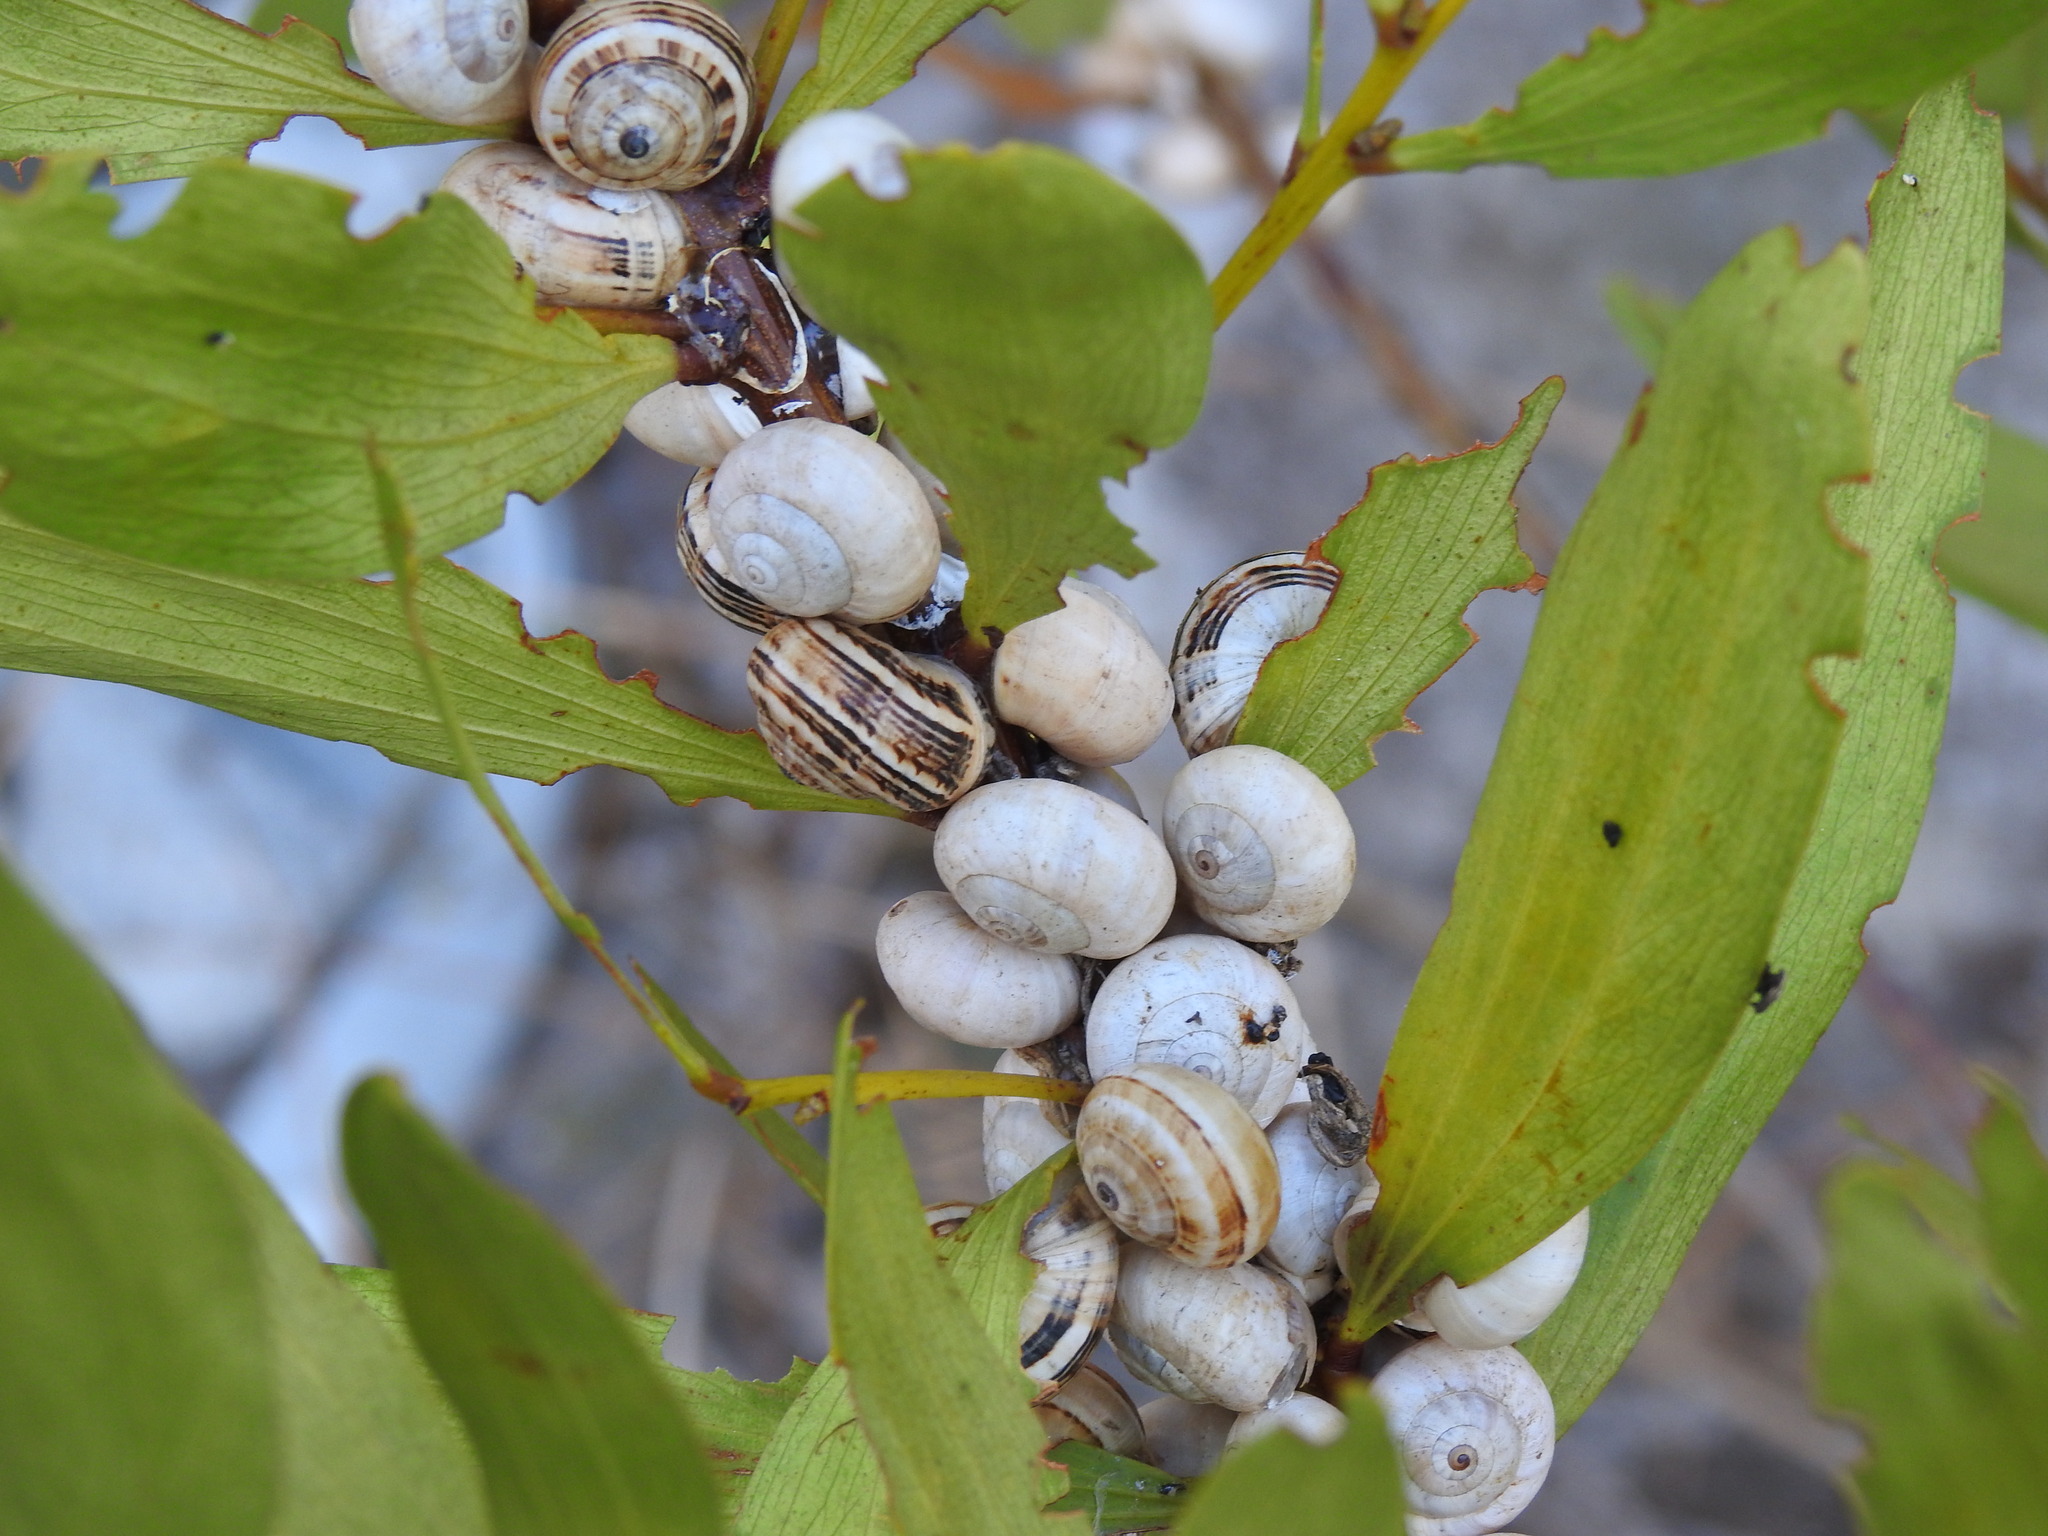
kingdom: Animalia
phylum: Mollusca
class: Gastropoda
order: Stylommatophora
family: Helicidae
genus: Theba
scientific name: Theba pisana
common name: White snail
